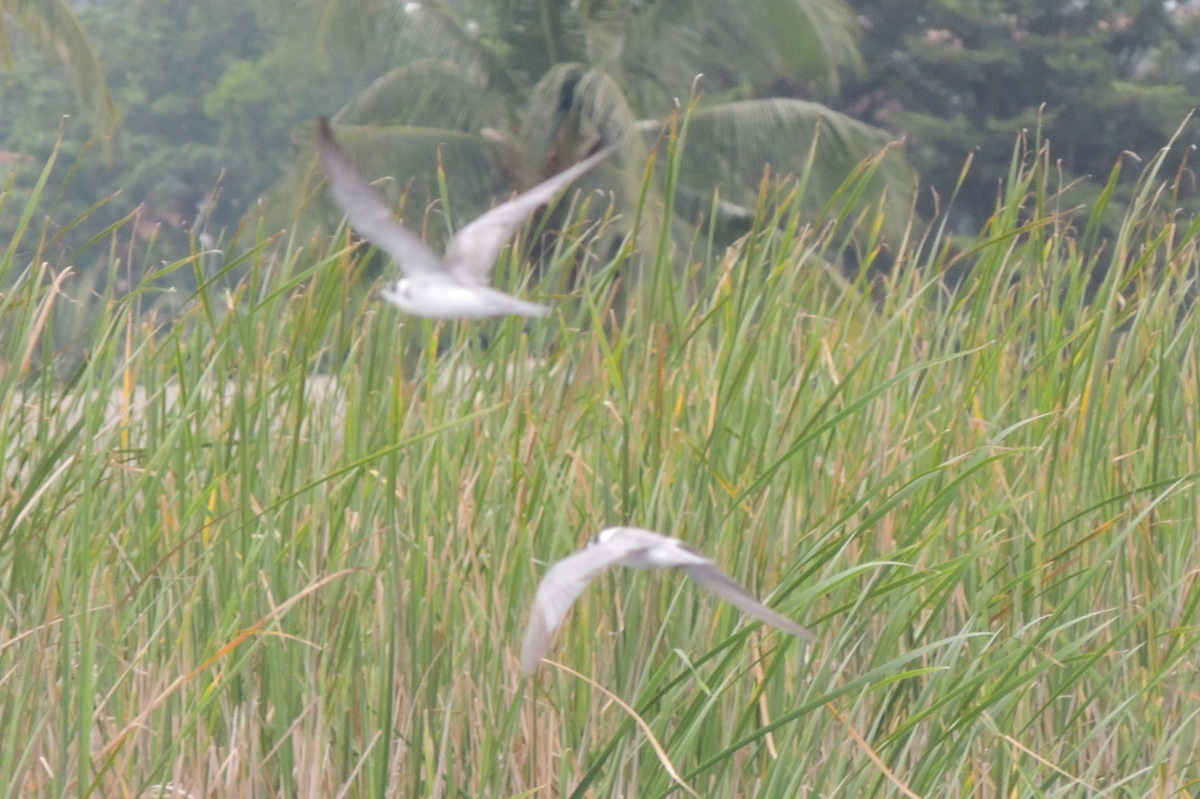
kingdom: Animalia
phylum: Chordata
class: Aves
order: Charadriiformes
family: Laridae
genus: Chlidonias
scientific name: Chlidonias niger
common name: Black tern
